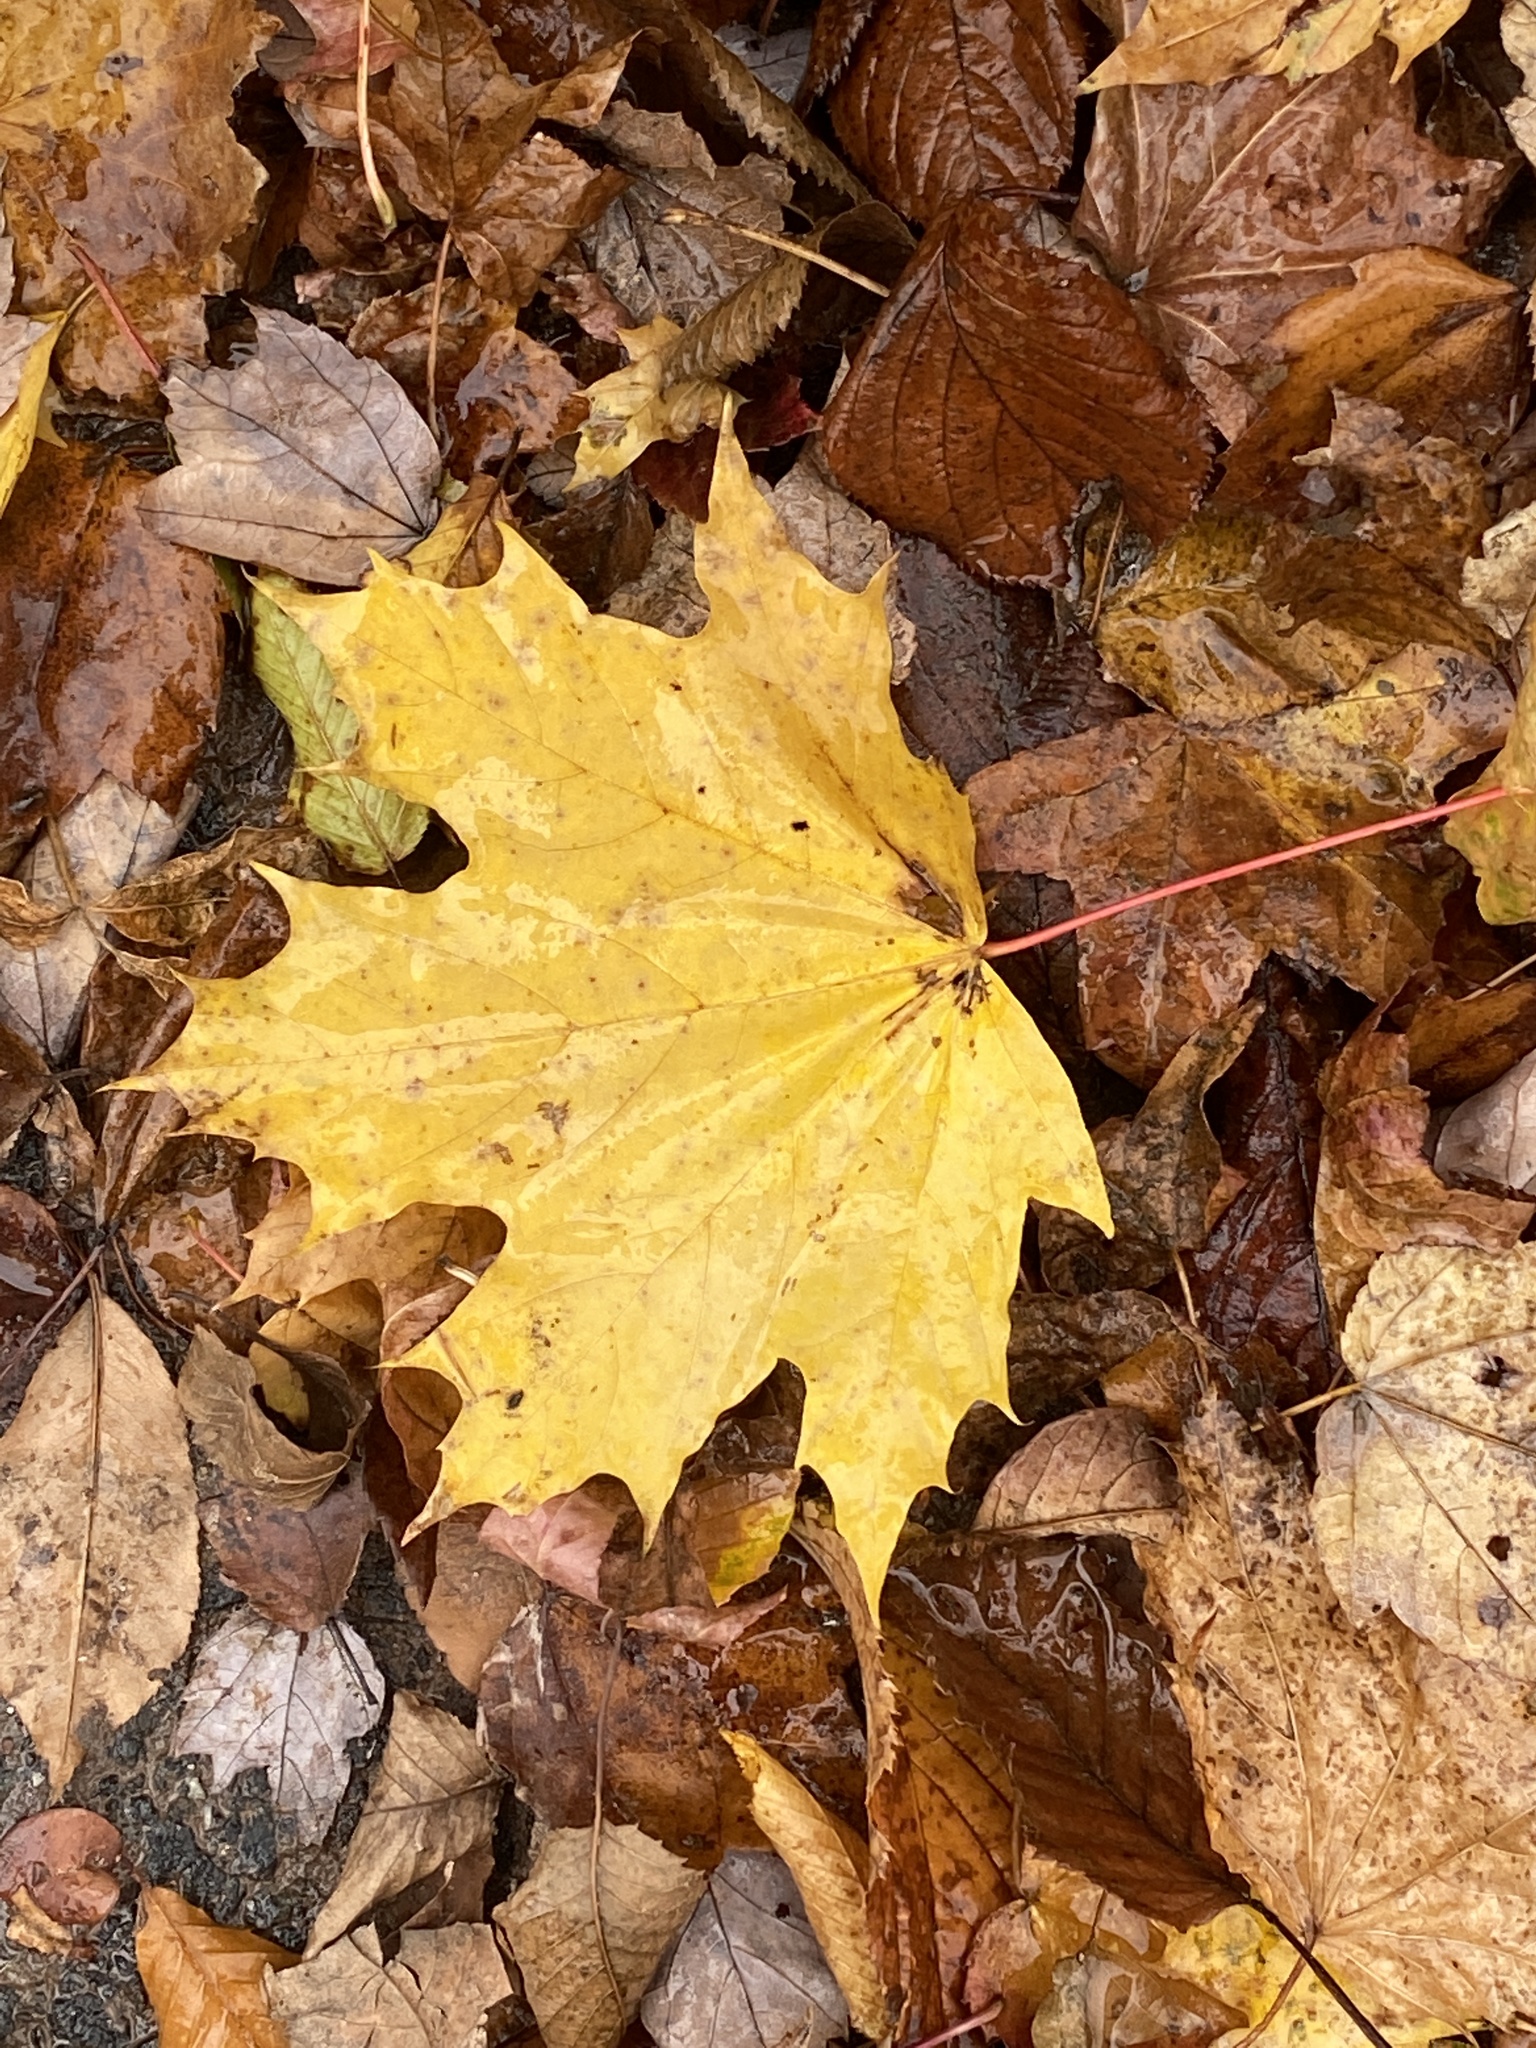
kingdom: Plantae
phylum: Tracheophyta
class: Magnoliopsida
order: Sapindales
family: Sapindaceae
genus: Acer
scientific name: Acer platanoides
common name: Norway maple
